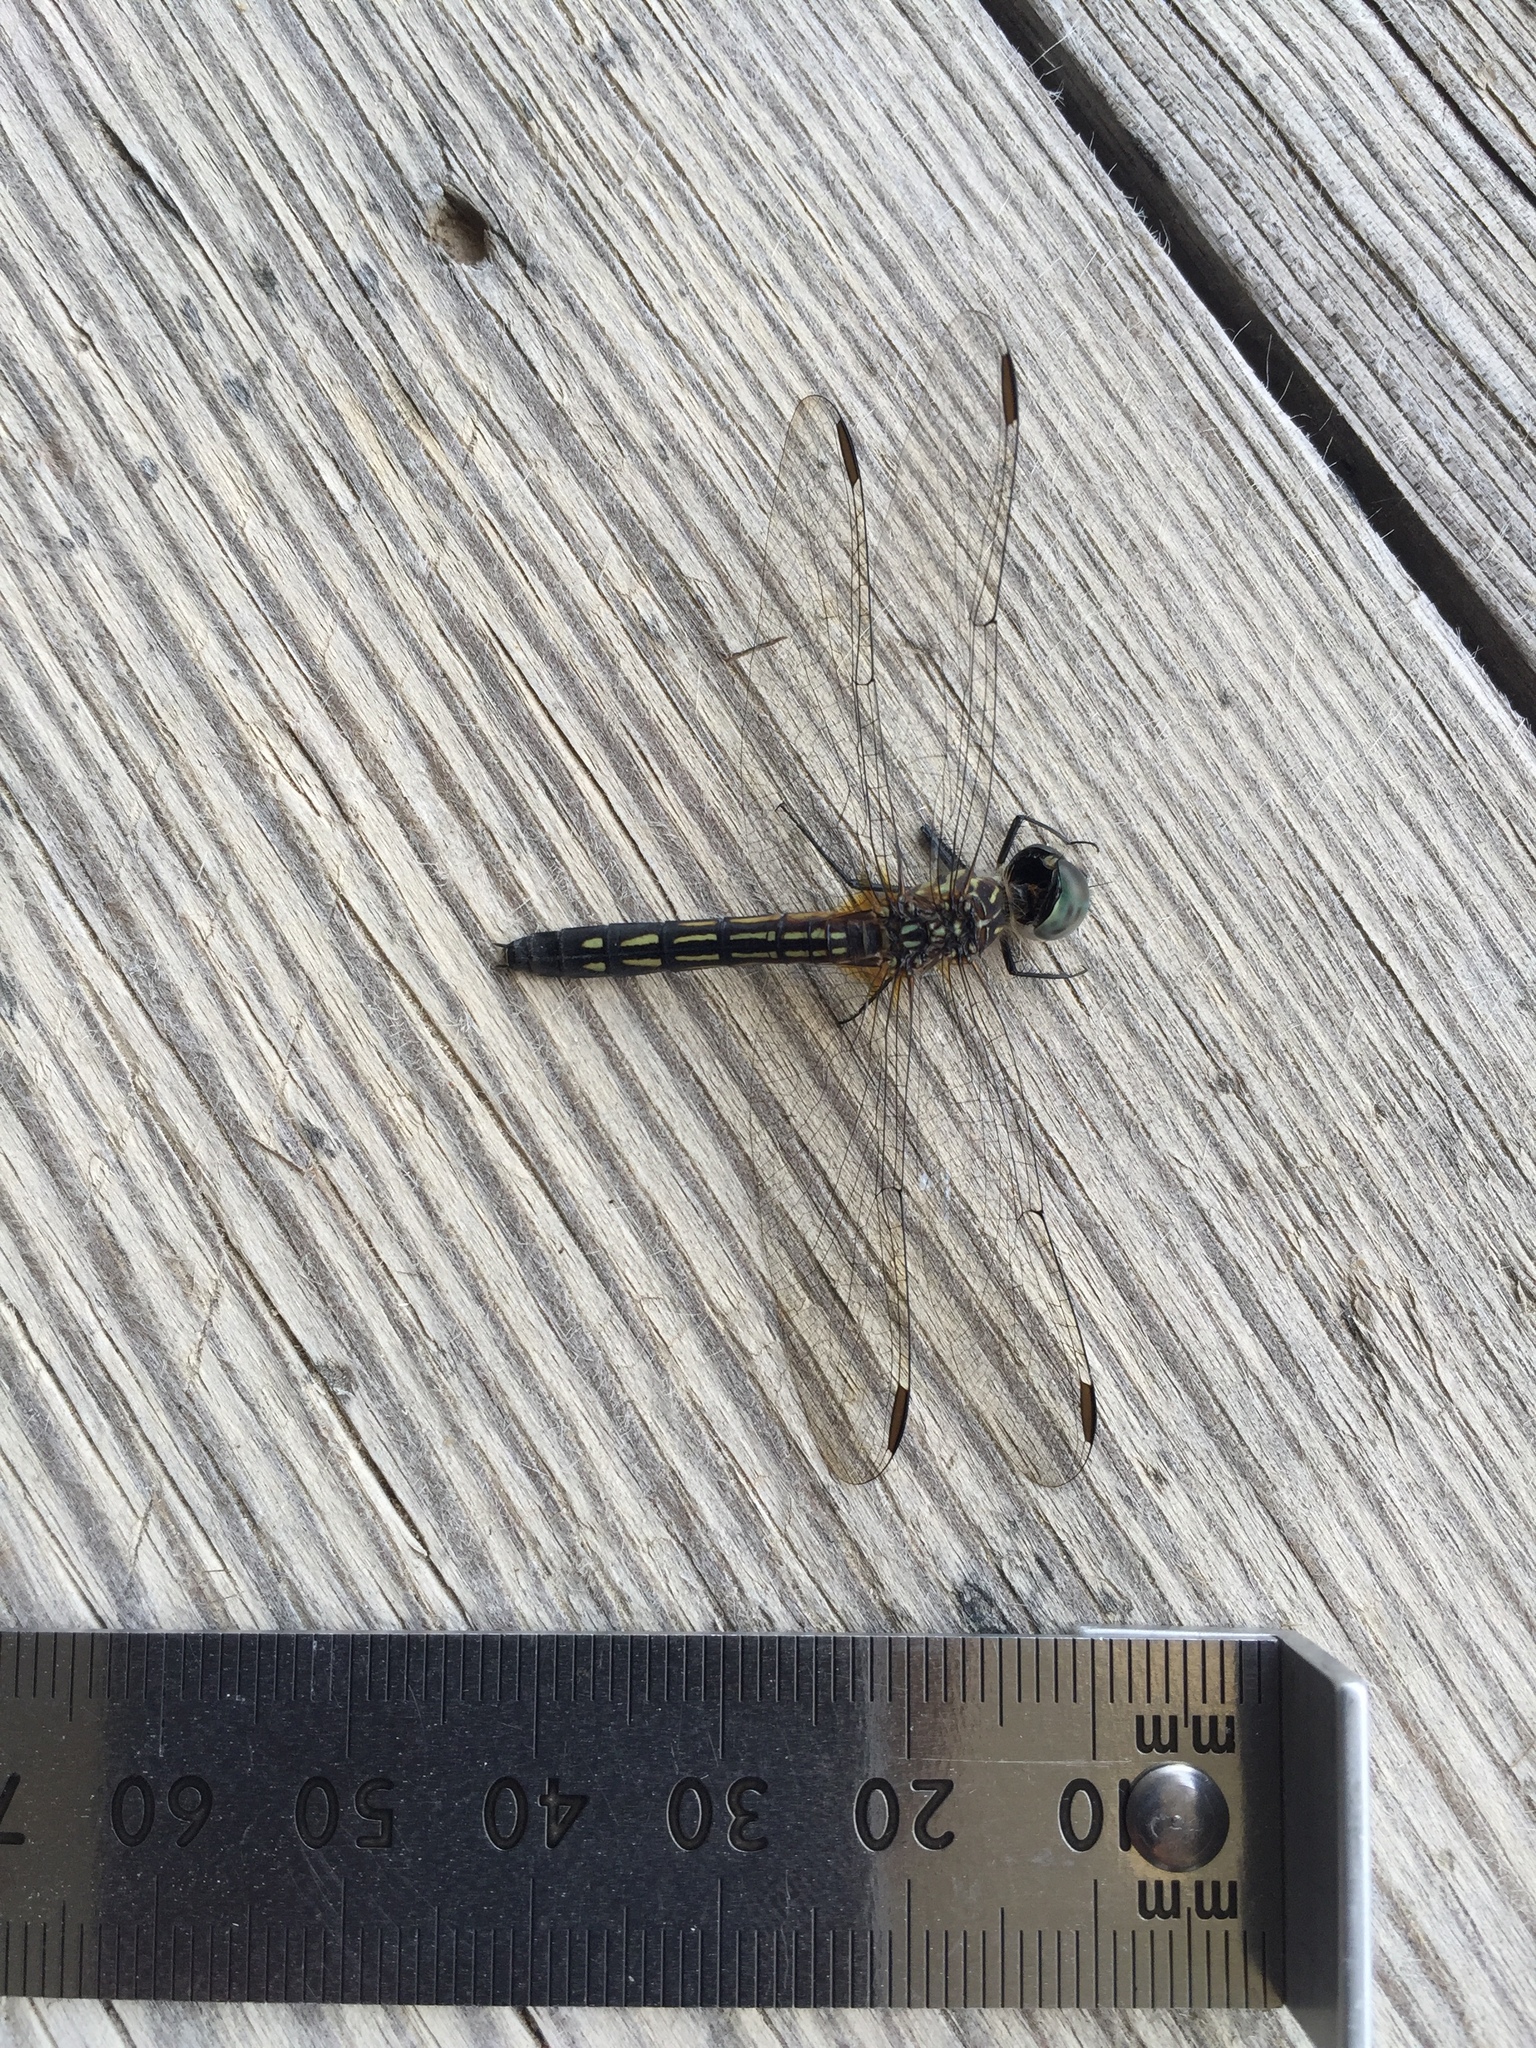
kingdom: Animalia
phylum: Arthropoda
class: Insecta
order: Odonata
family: Libellulidae
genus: Pachydiplax
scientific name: Pachydiplax longipennis
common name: Blue dasher
